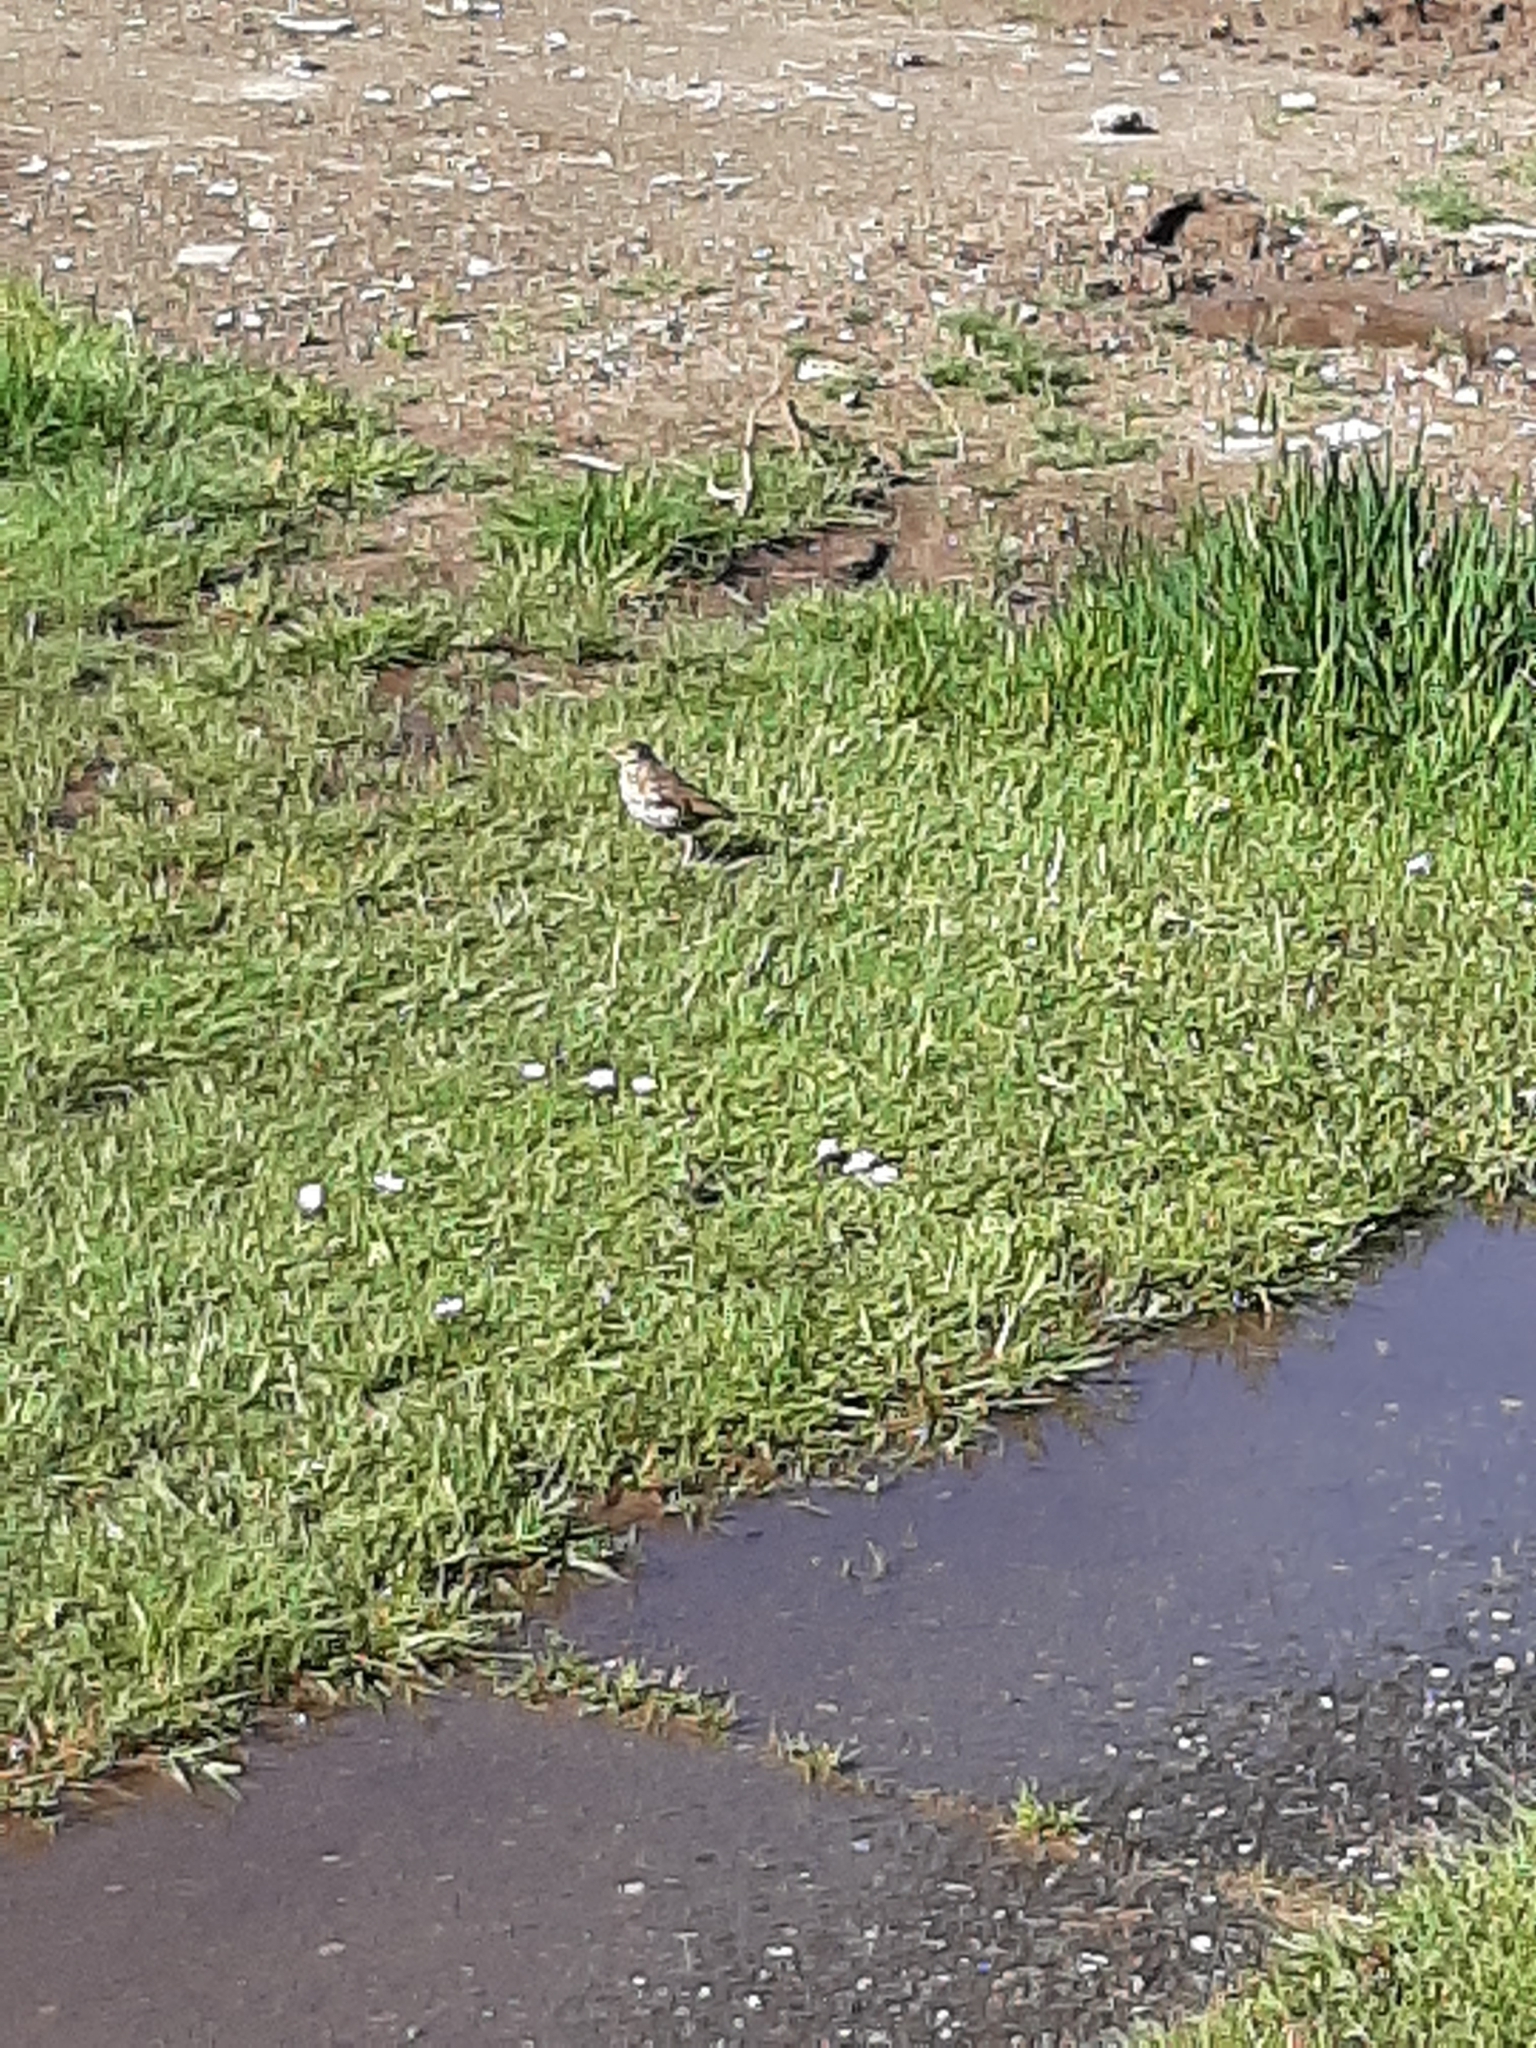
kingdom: Animalia
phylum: Chordata
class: Aves
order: Passeriformes
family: Turdidae
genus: Turdus
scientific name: Turdus philomelos
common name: Song thrush
